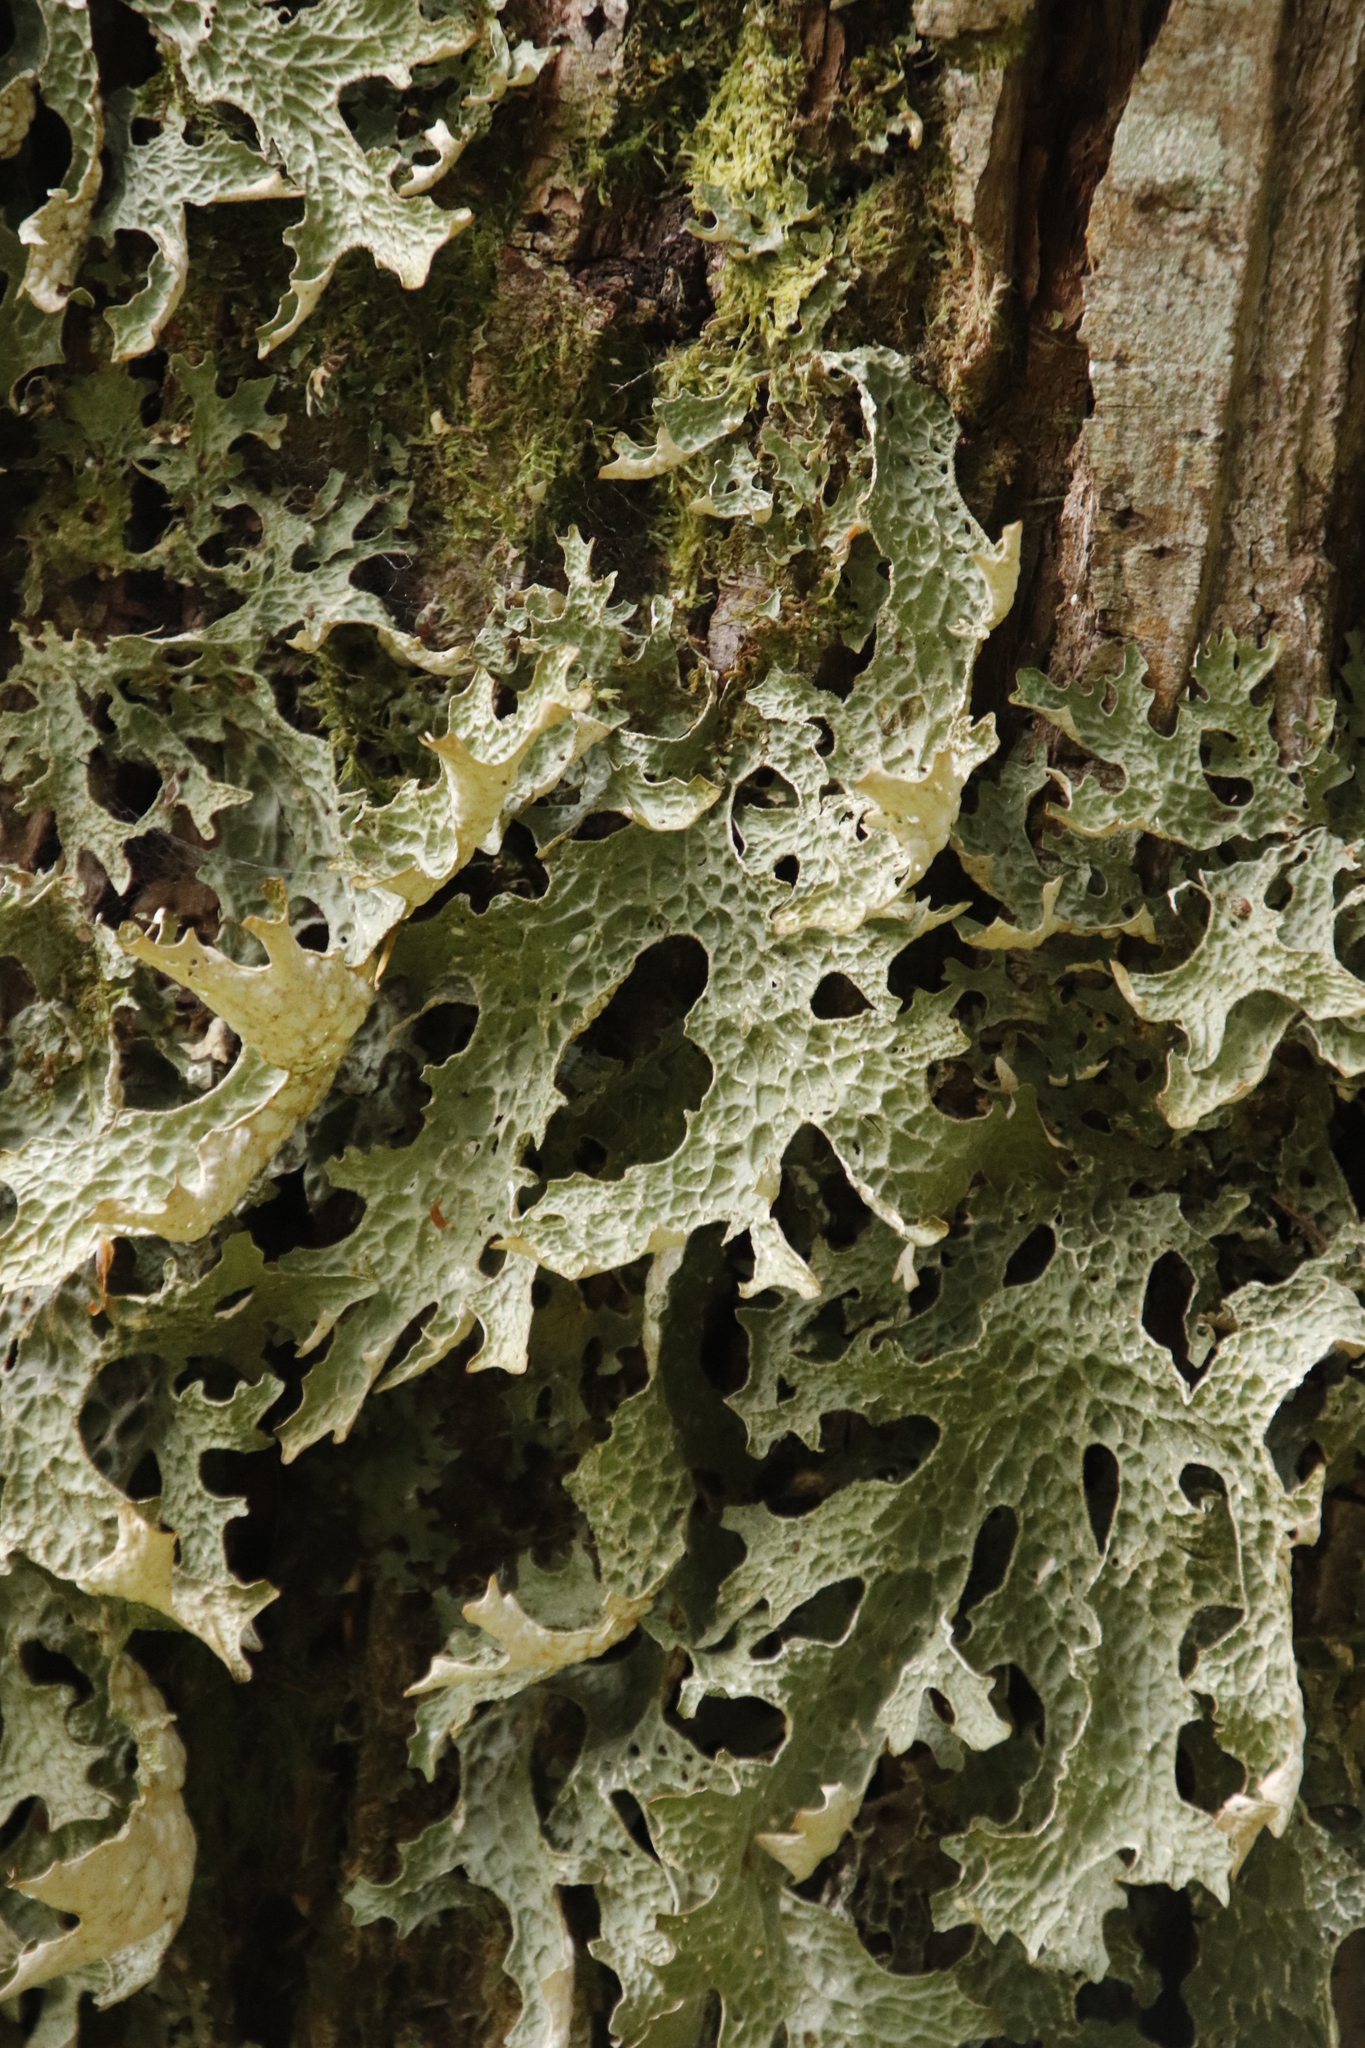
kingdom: Fungi
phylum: Ascomycota
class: Lecanoromycetes
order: Peltigerales
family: Lobariaceae
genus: Lobaria
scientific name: Lobaria pulmonaria
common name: Lungwort
